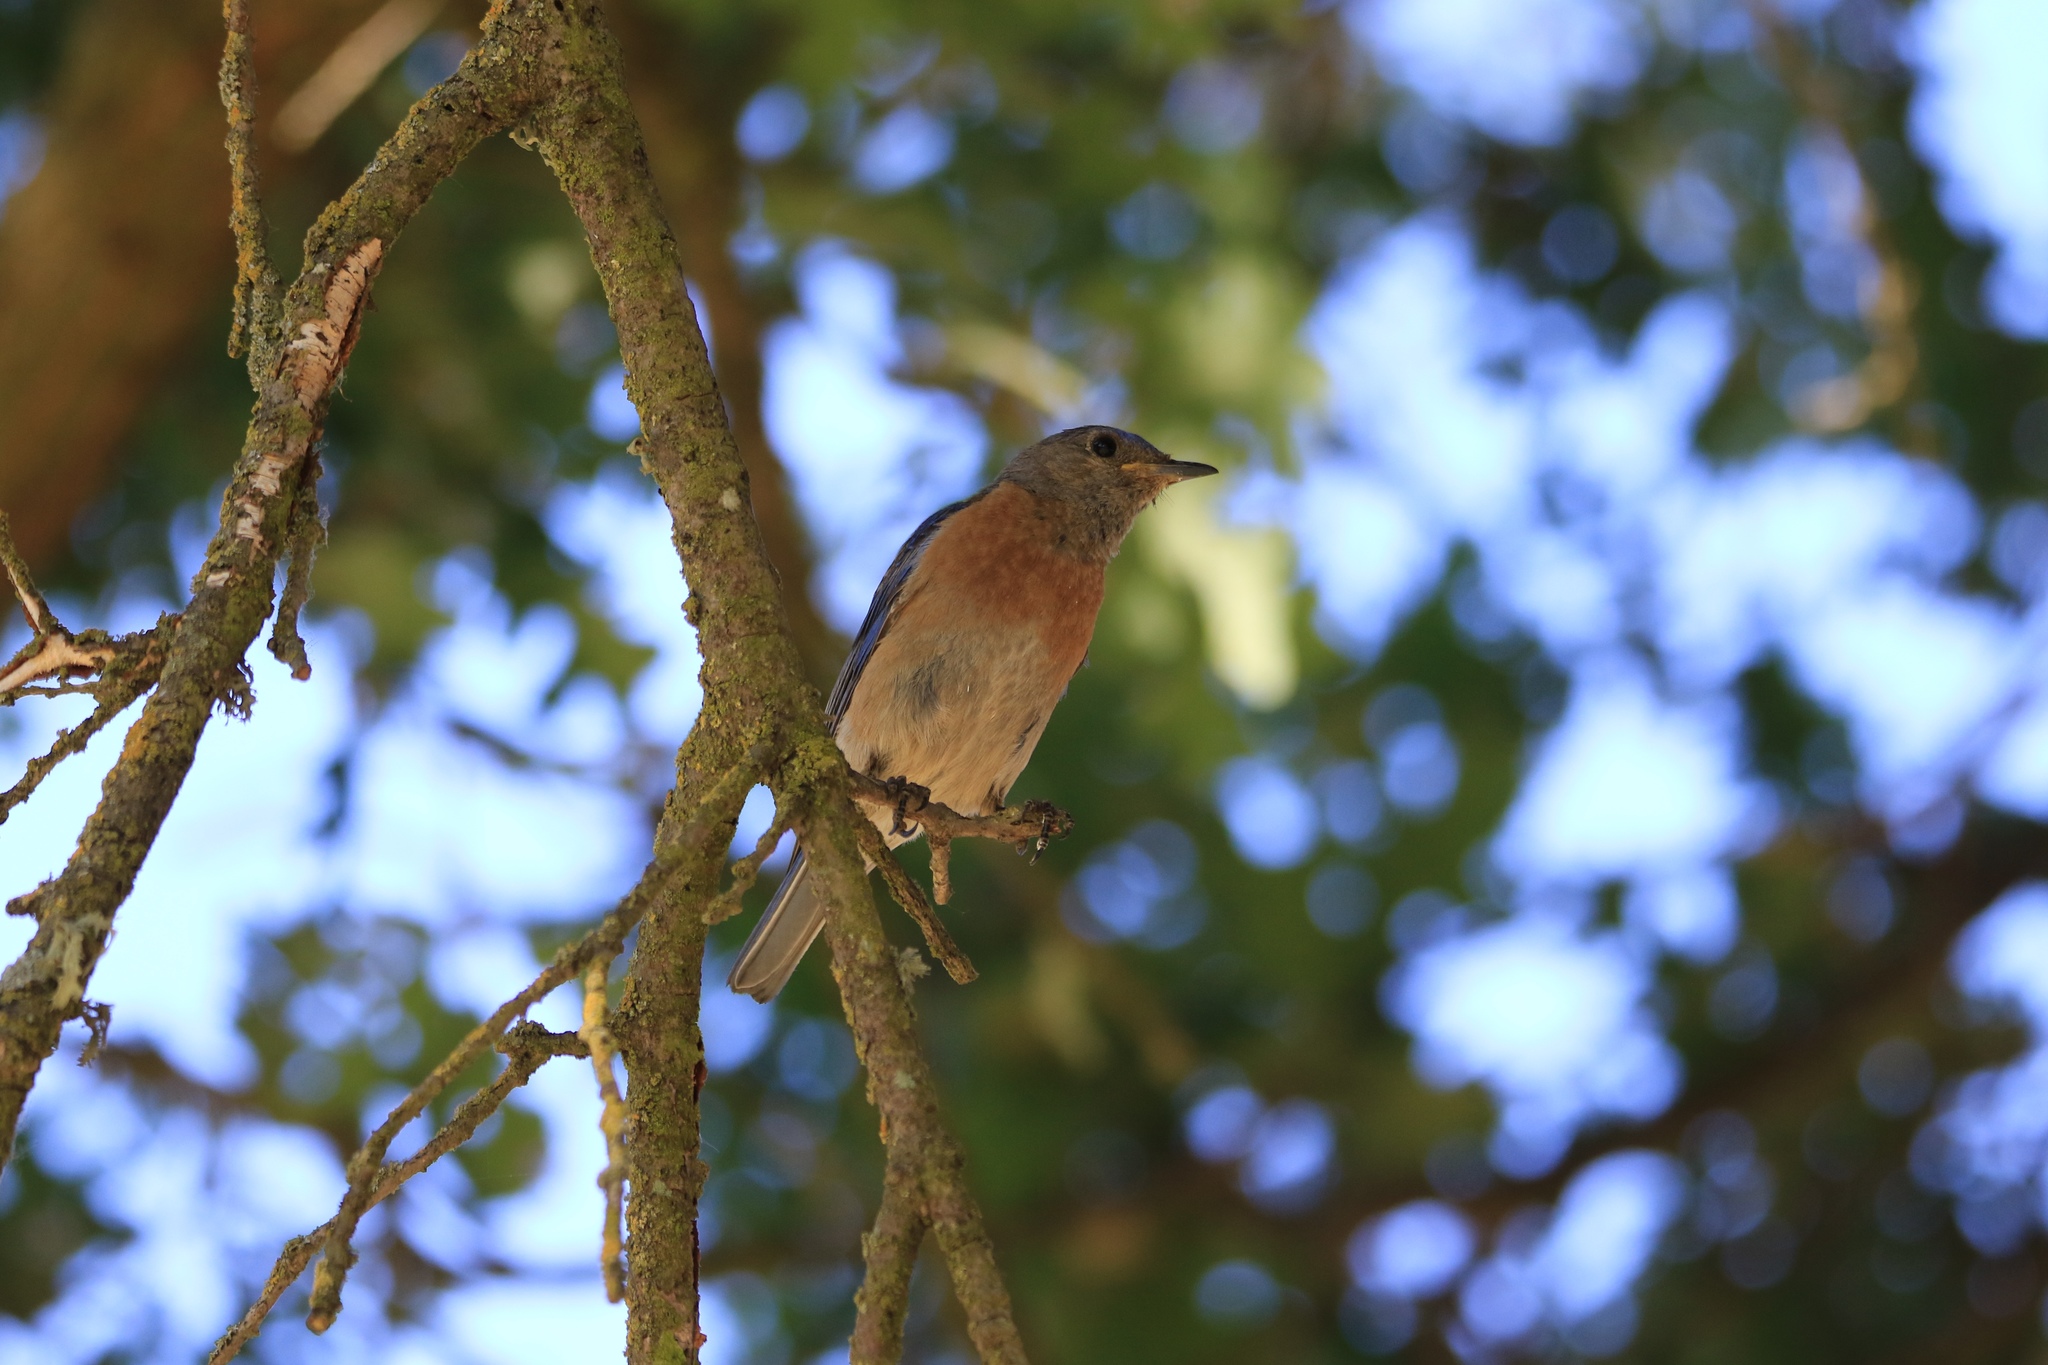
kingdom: Animalia
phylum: Chordata
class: Aves
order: Passeriformes
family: Turdidae
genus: Sialia
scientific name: Sialia mexicana
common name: Western bluebird
